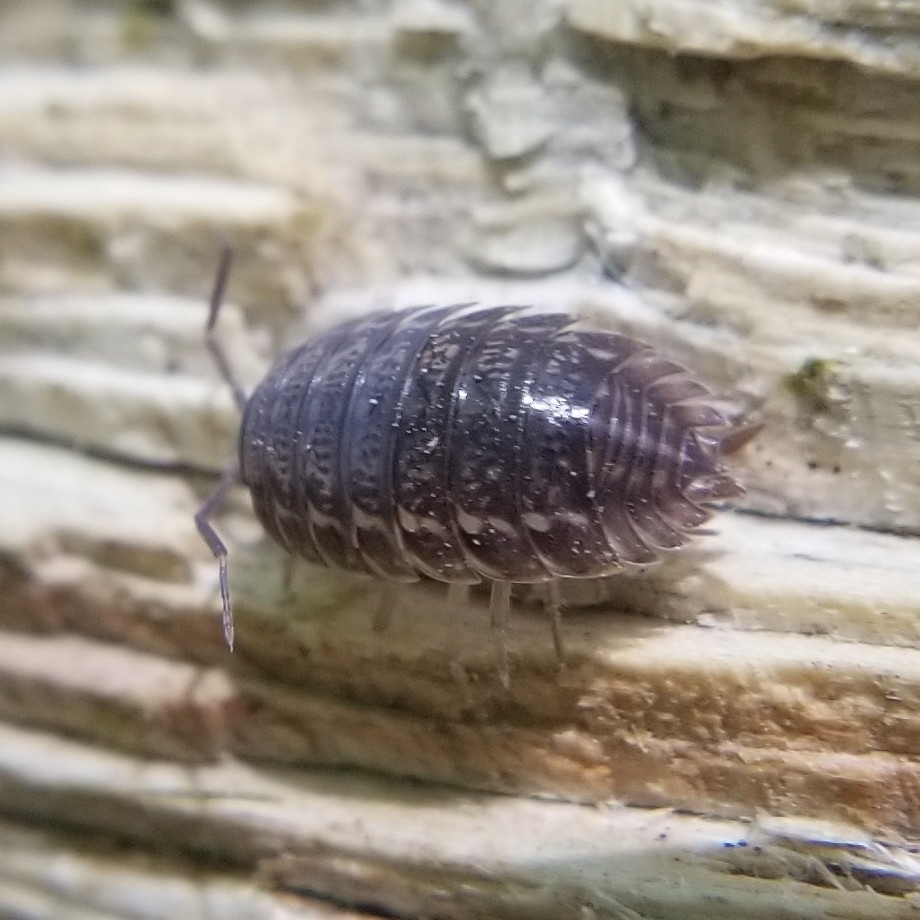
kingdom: Animalia
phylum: Arthropoda
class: Malacostraca
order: Isopoda
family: Trachelipodidae
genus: Trachelipus
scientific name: Trachelipus rathkii
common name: Isopod
